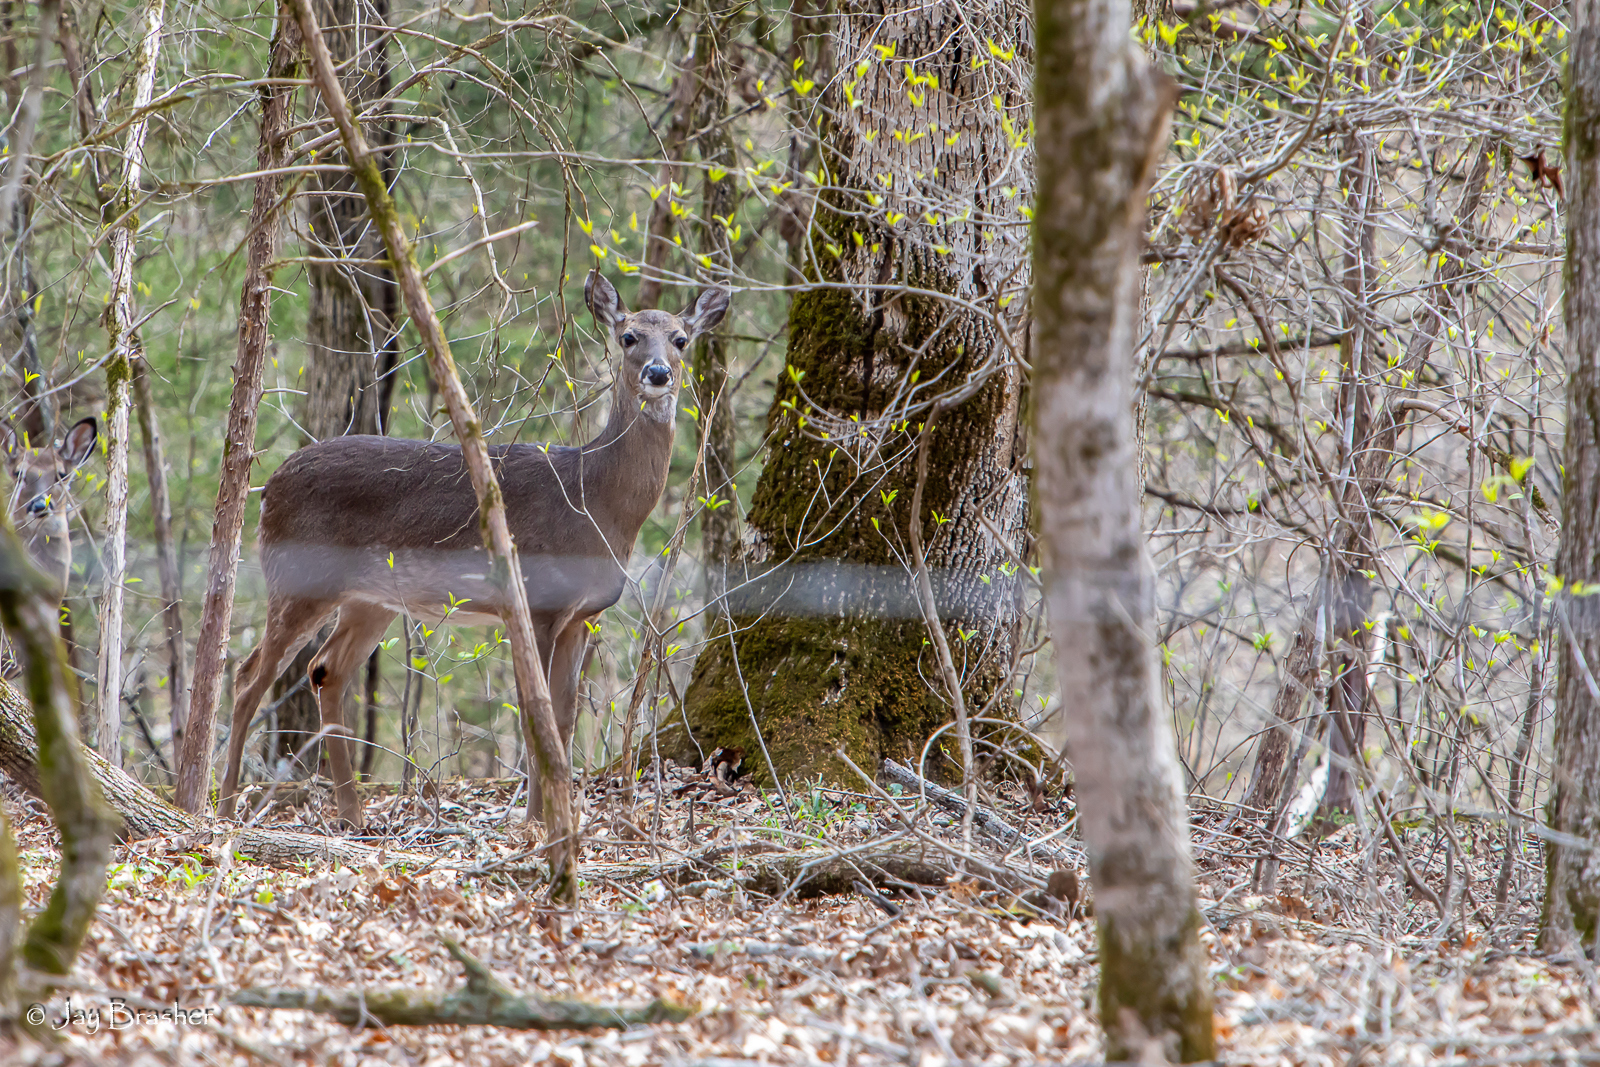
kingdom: Animalia
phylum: Chordata
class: Mammalia
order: Artiodactyla
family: Cervidae
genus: Odocoileus
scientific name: Odocoileus virginianus
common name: White-tailed deer
